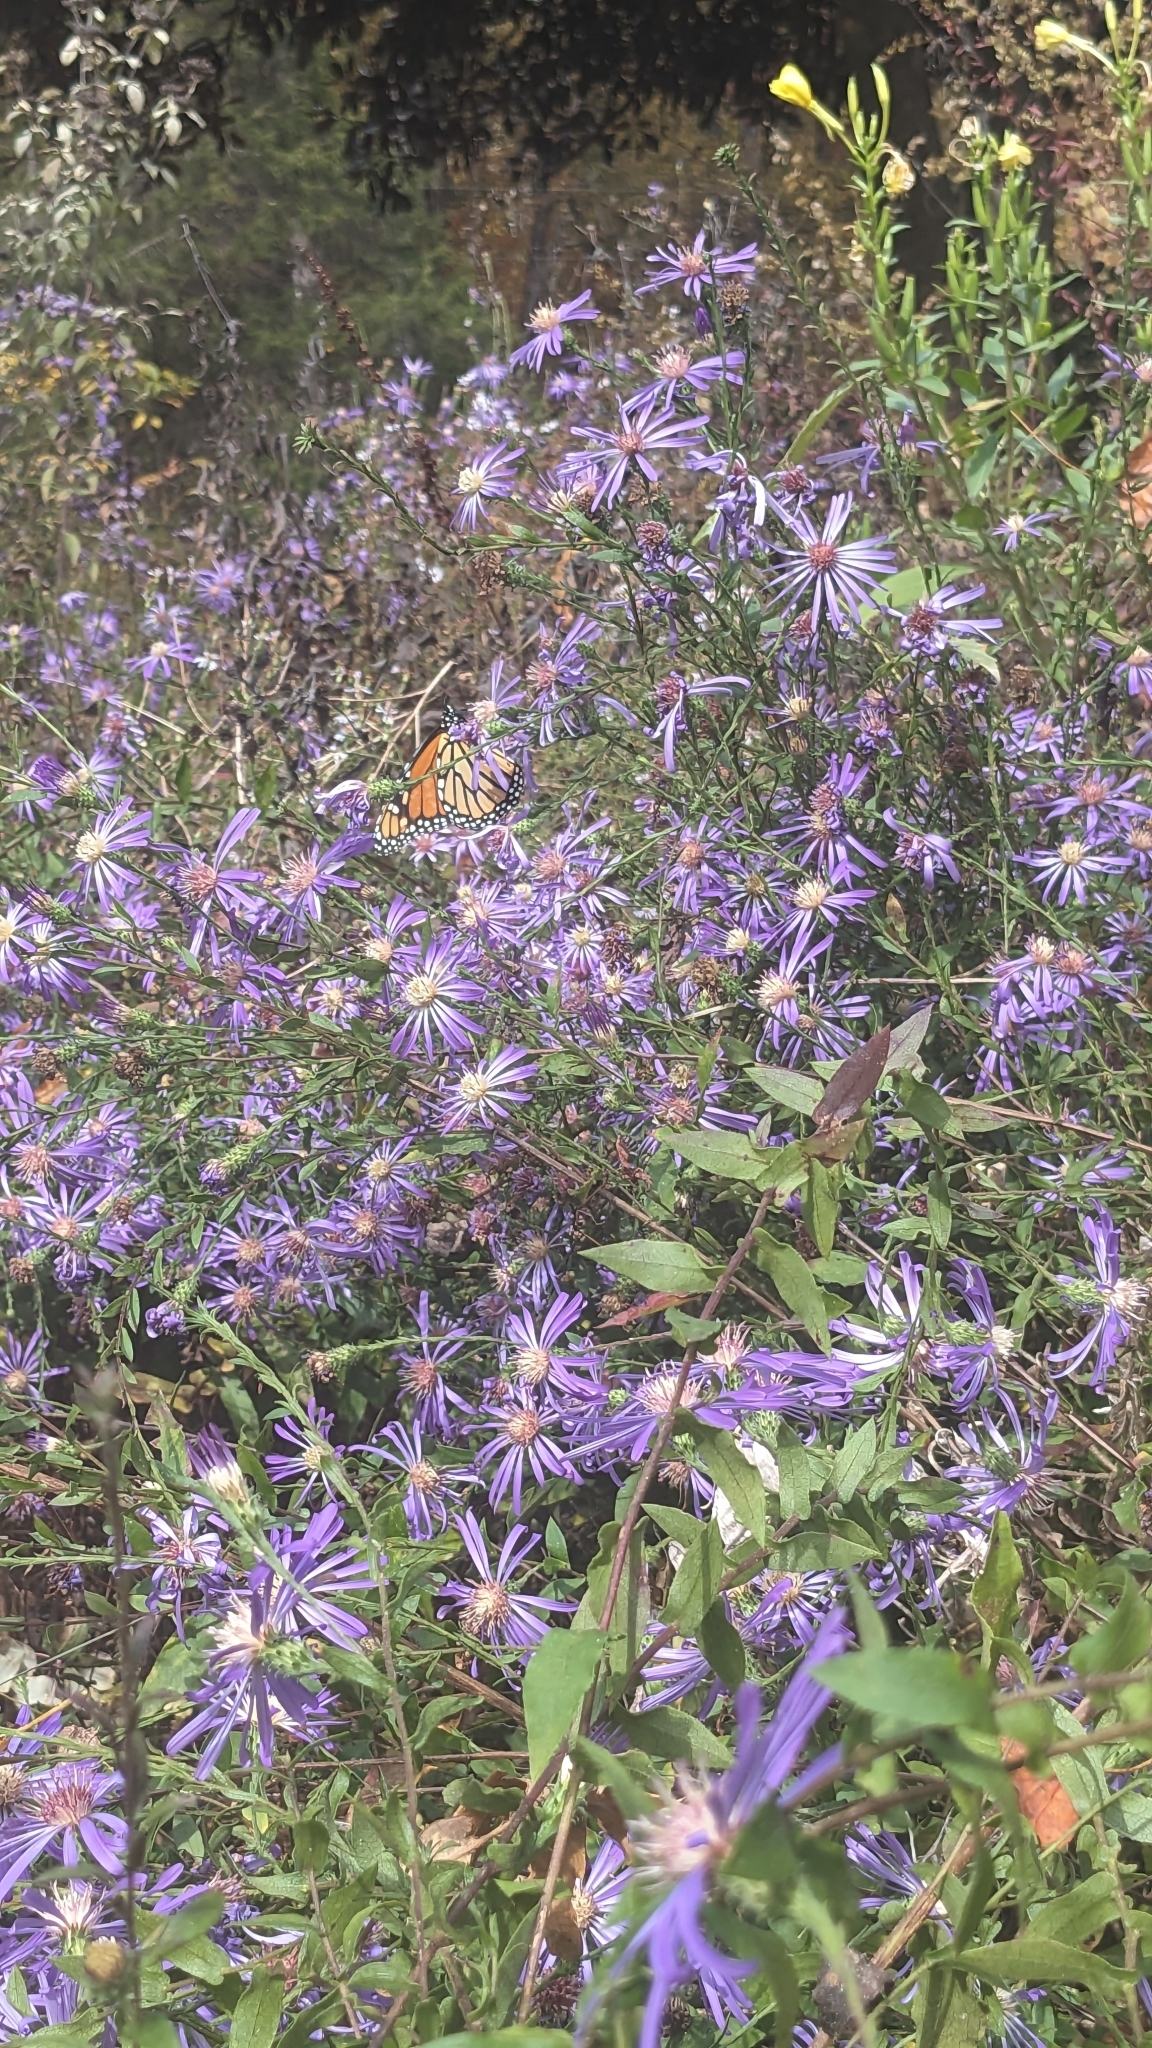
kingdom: Animalia
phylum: Arthropoda
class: Insecta
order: Lepidoptera
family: Nymphalidae
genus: Danaus
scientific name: Danaus plexippus
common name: Monarch
